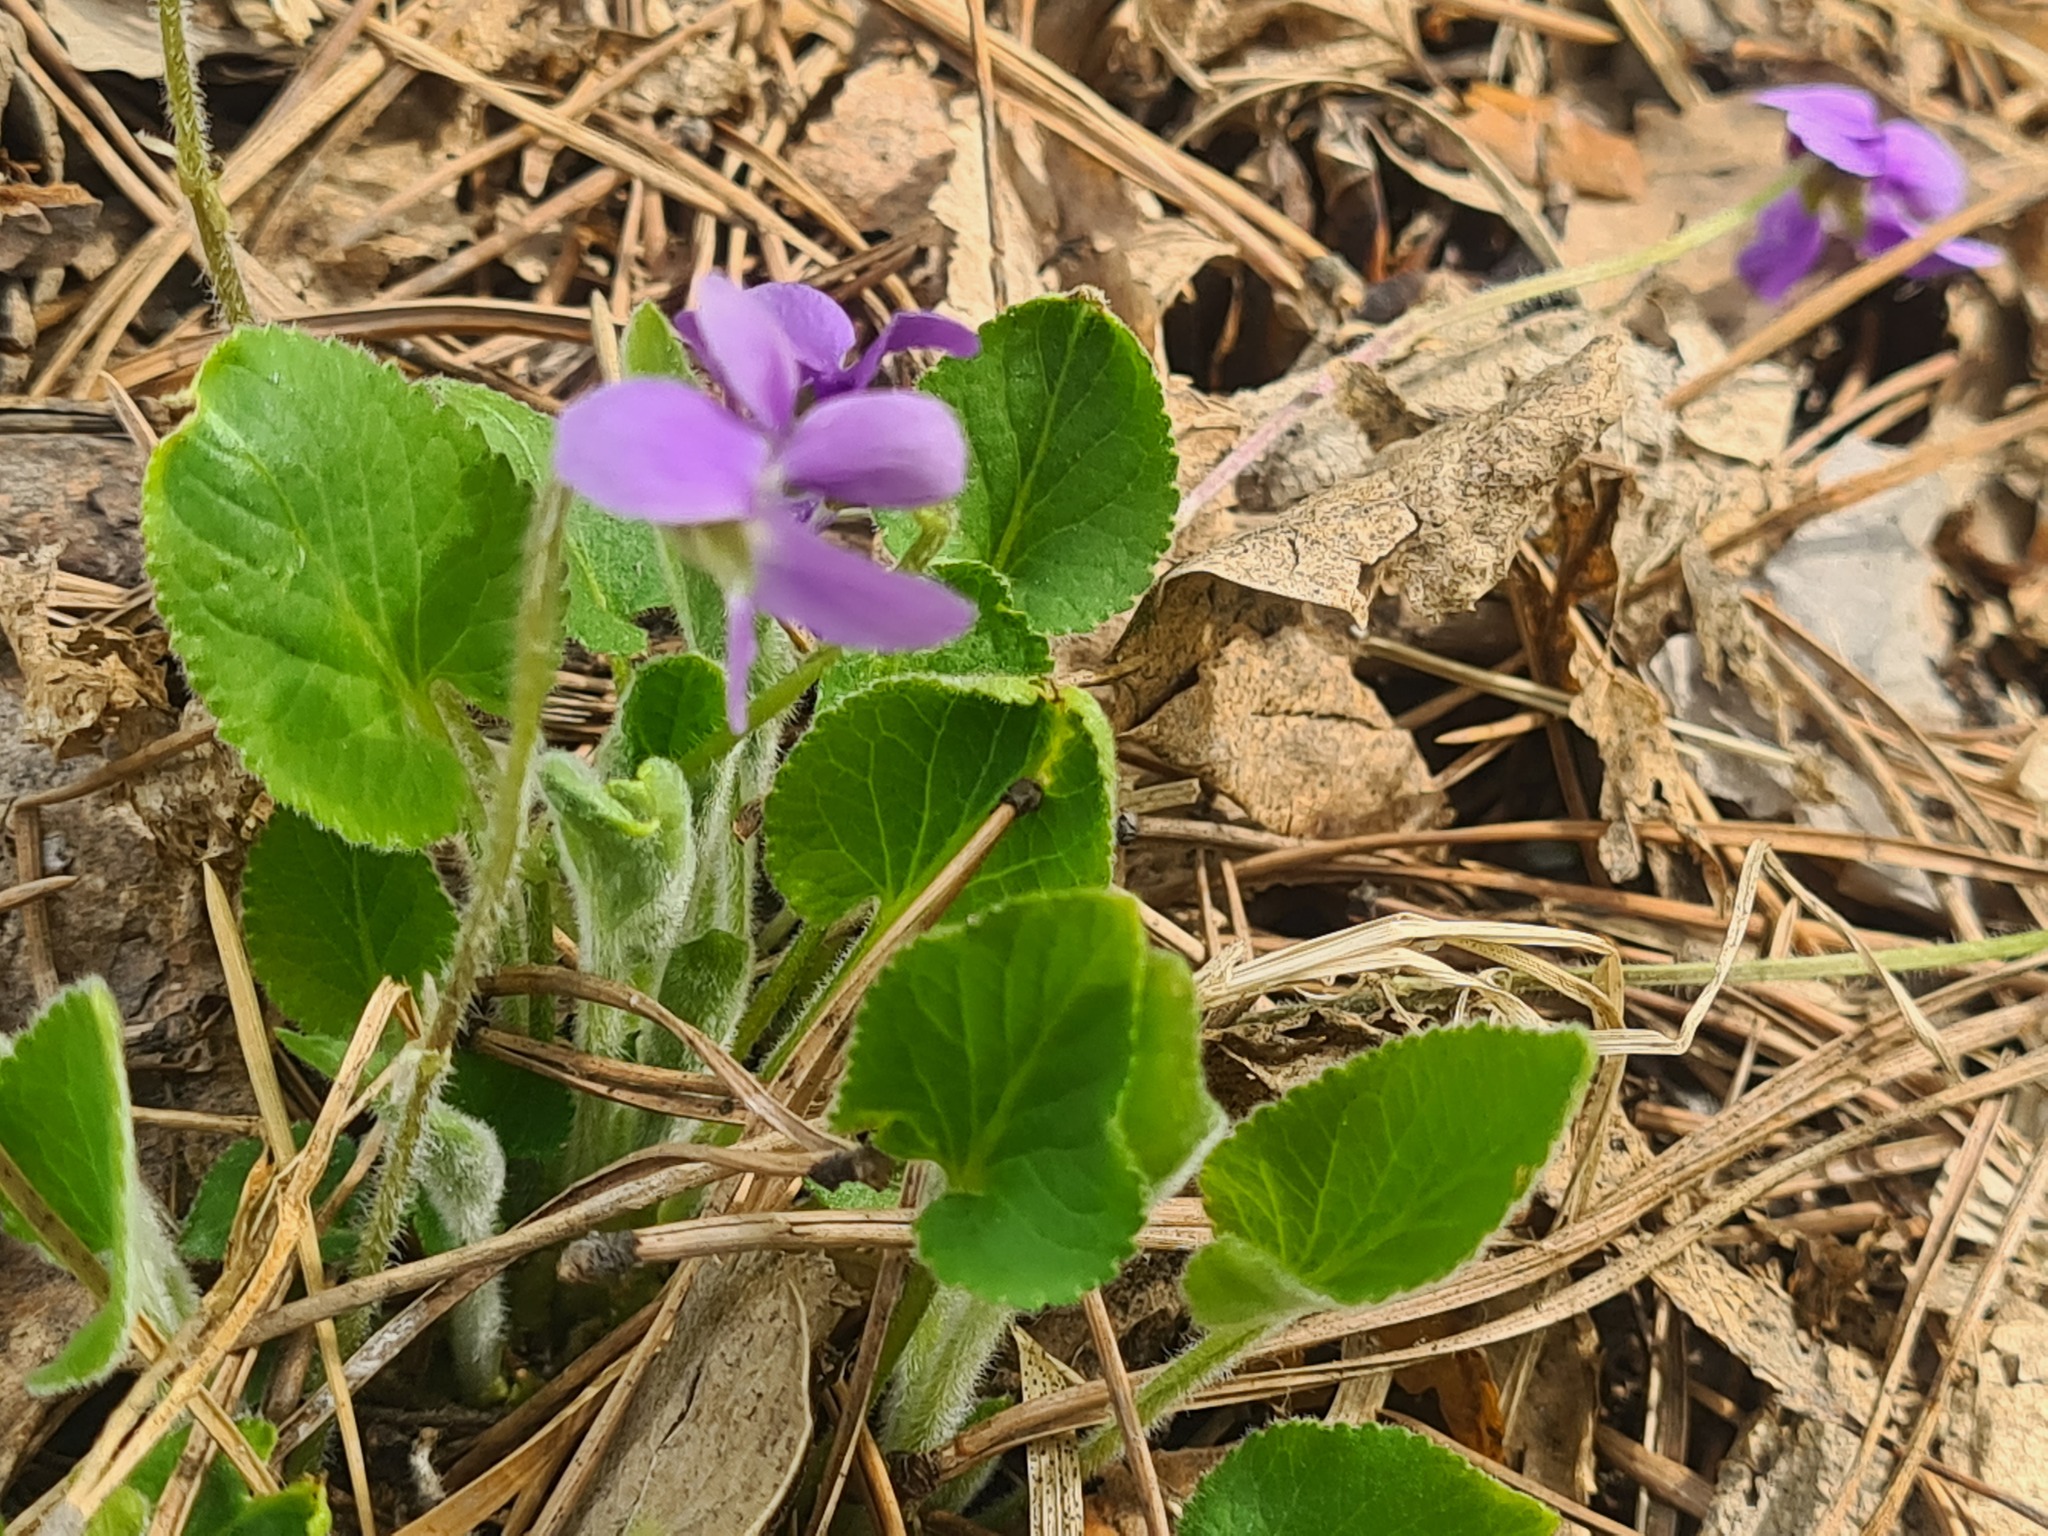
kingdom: Plantae
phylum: Tracheophyta
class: Magnoliopsida
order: Malpighiales
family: Violaceae
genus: Viola
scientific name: Viola hirta
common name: Hairy violet
